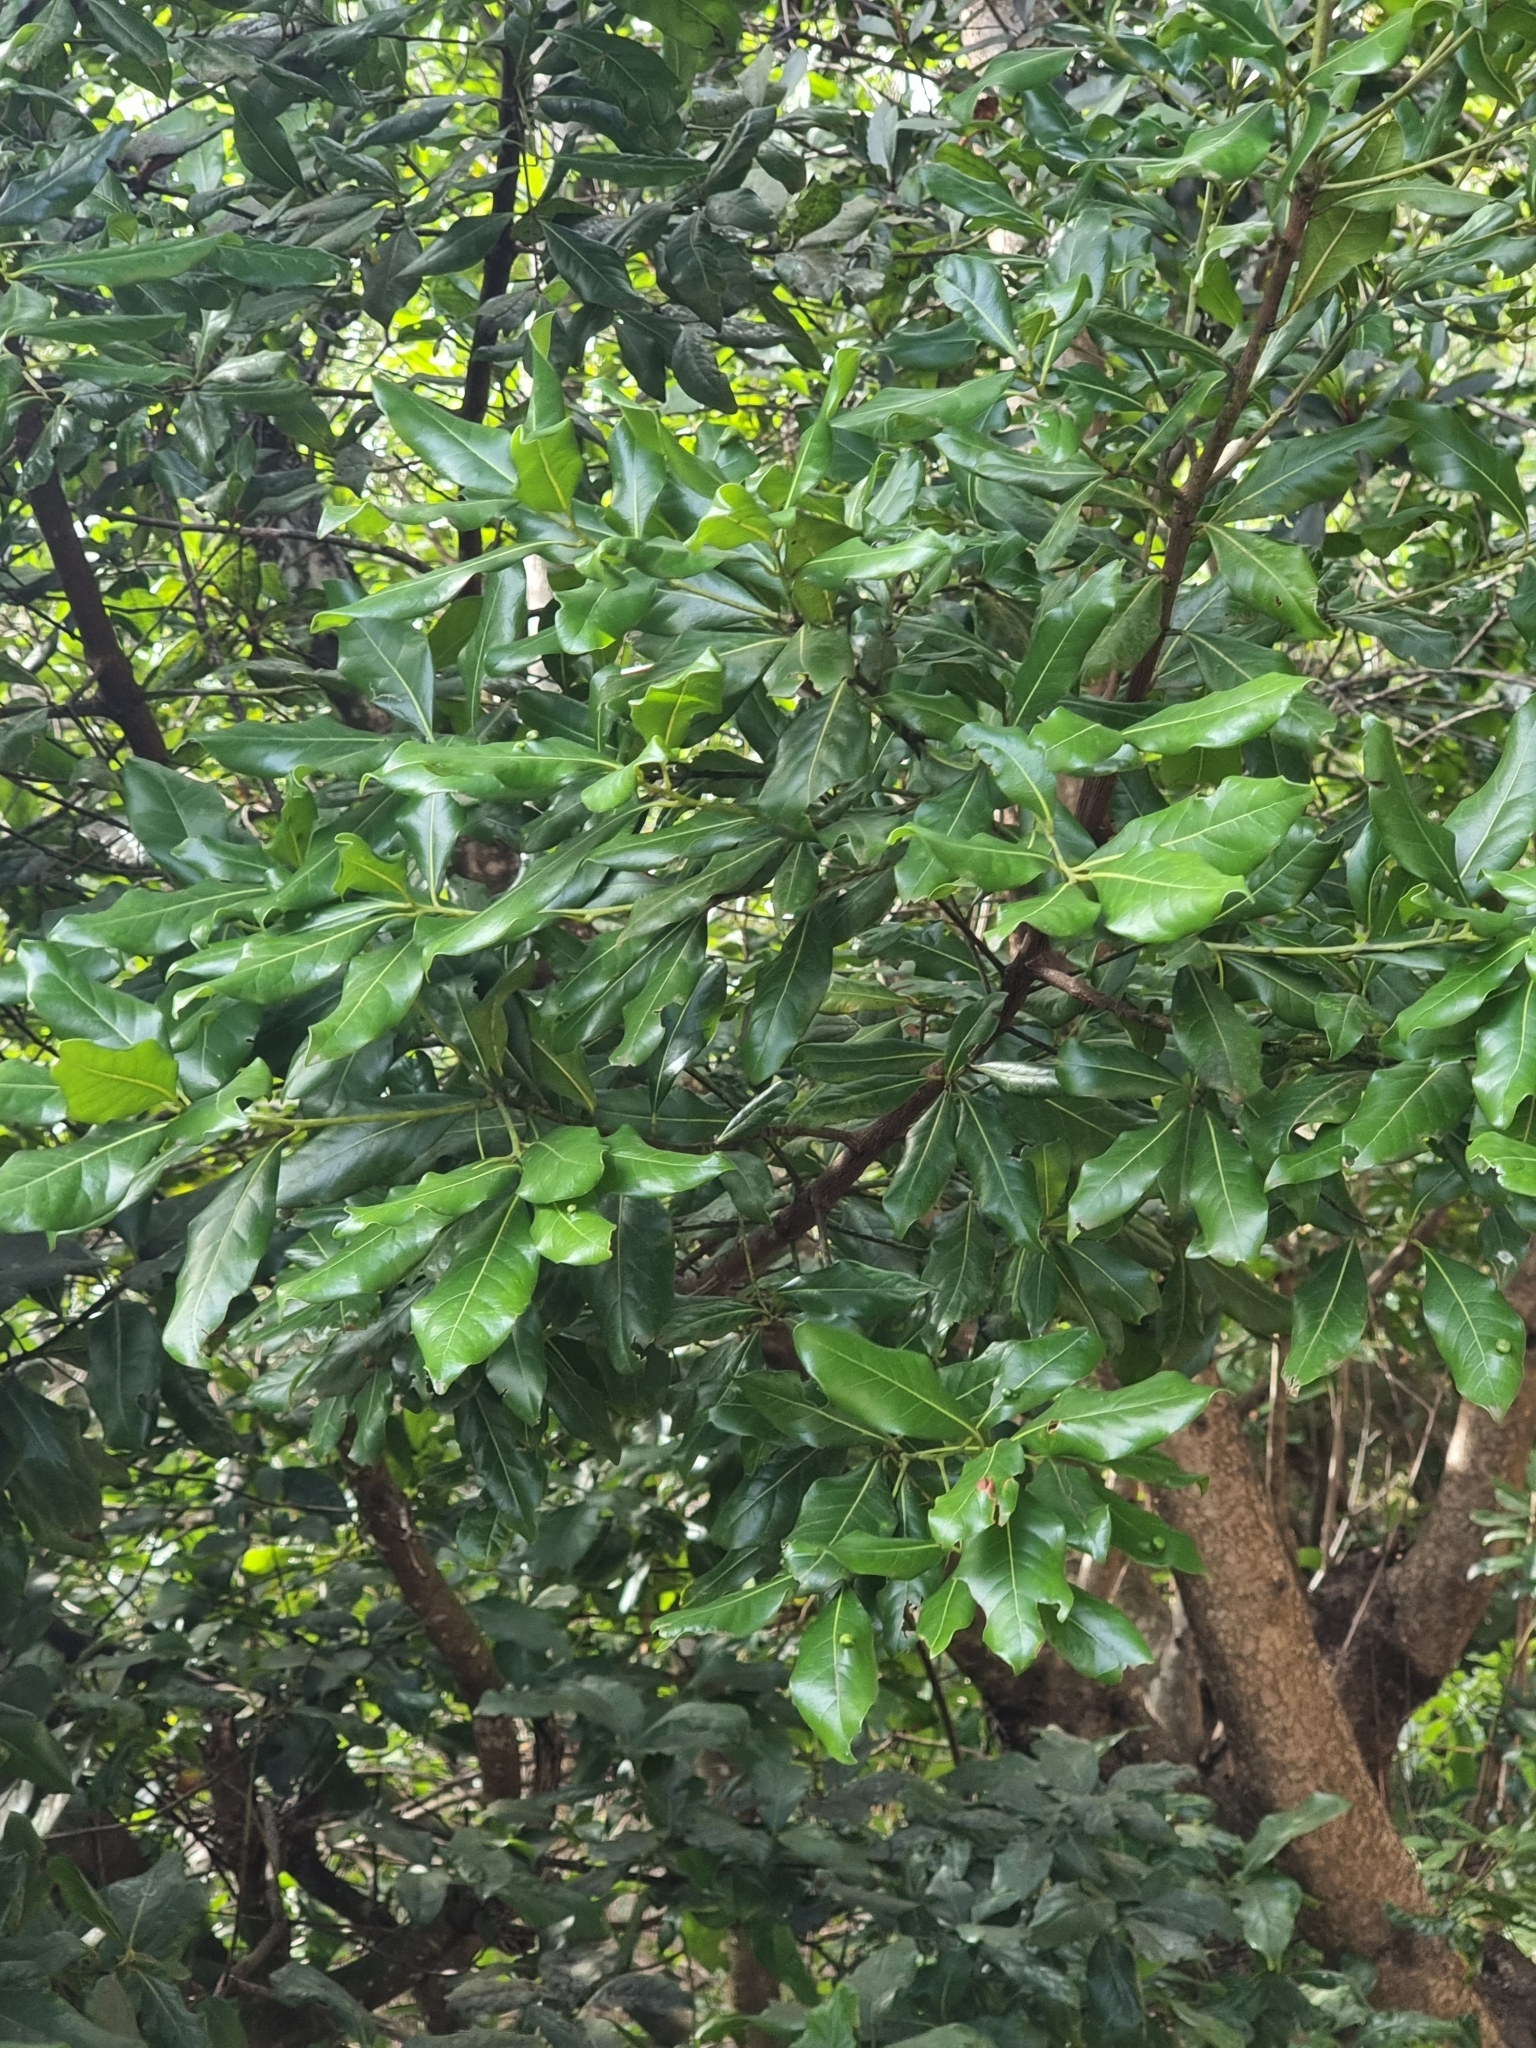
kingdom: Plantae
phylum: Tracheophyta
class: Magnoliopsida
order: Laurales
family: Lauraceae
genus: Apollonias
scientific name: Apollonias barbujana
